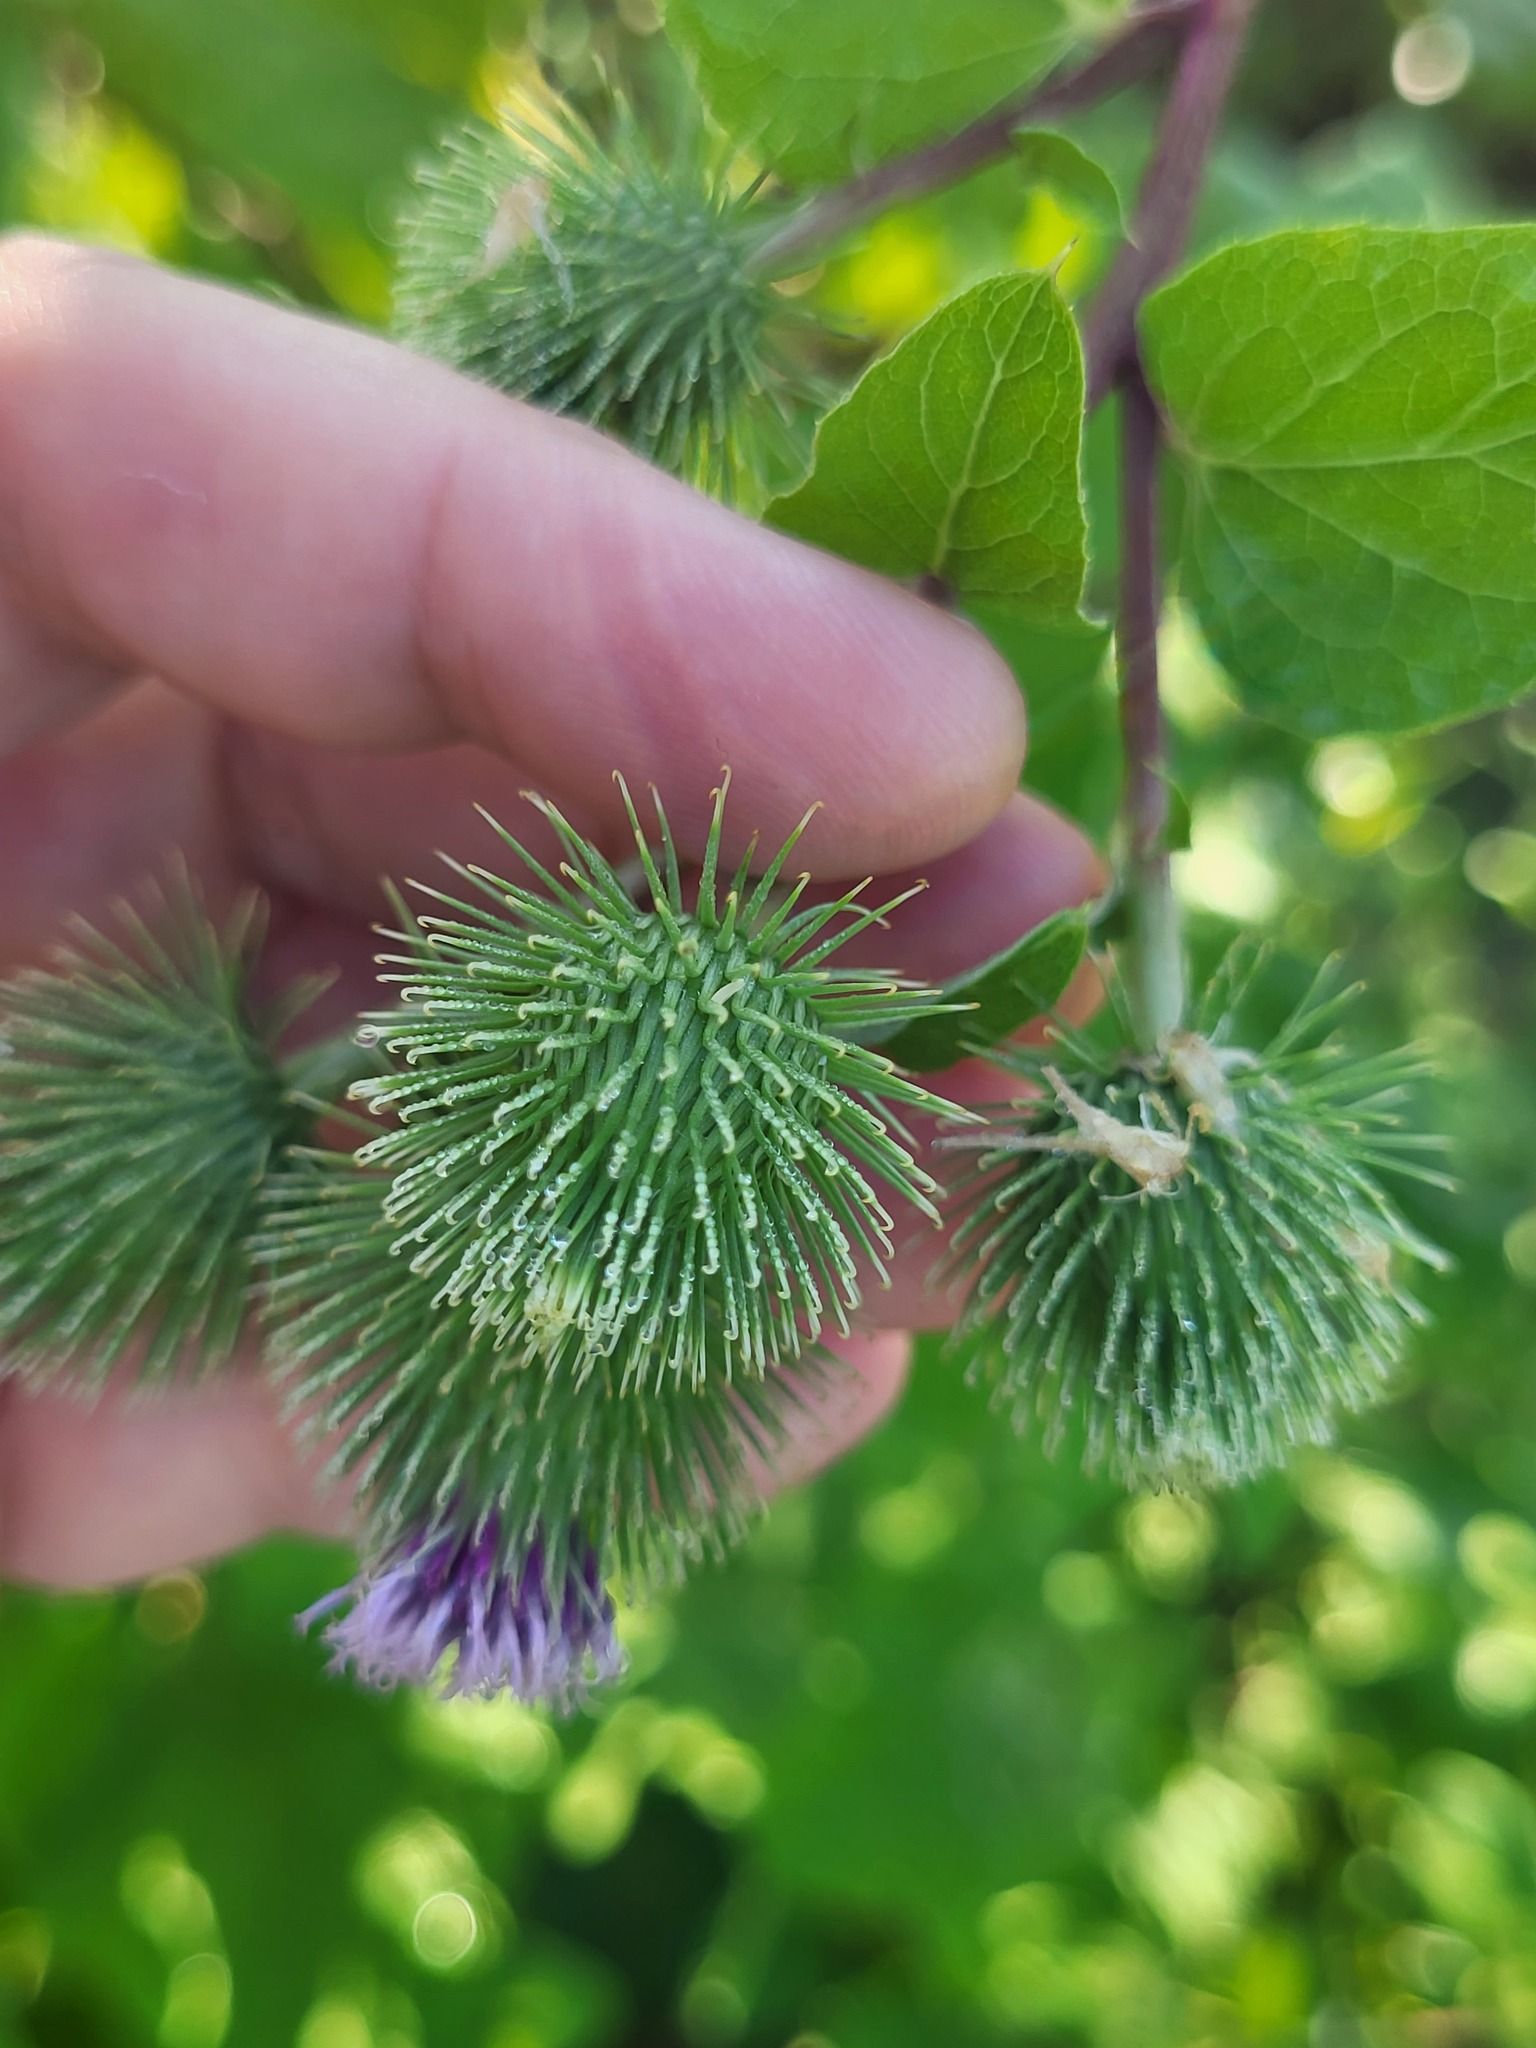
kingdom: Plantae
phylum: Tracheophyta
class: Magnoliopsida
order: Asterales
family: Asteraceae
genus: Arctium
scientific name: Arctium minus
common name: Lesser burdock
